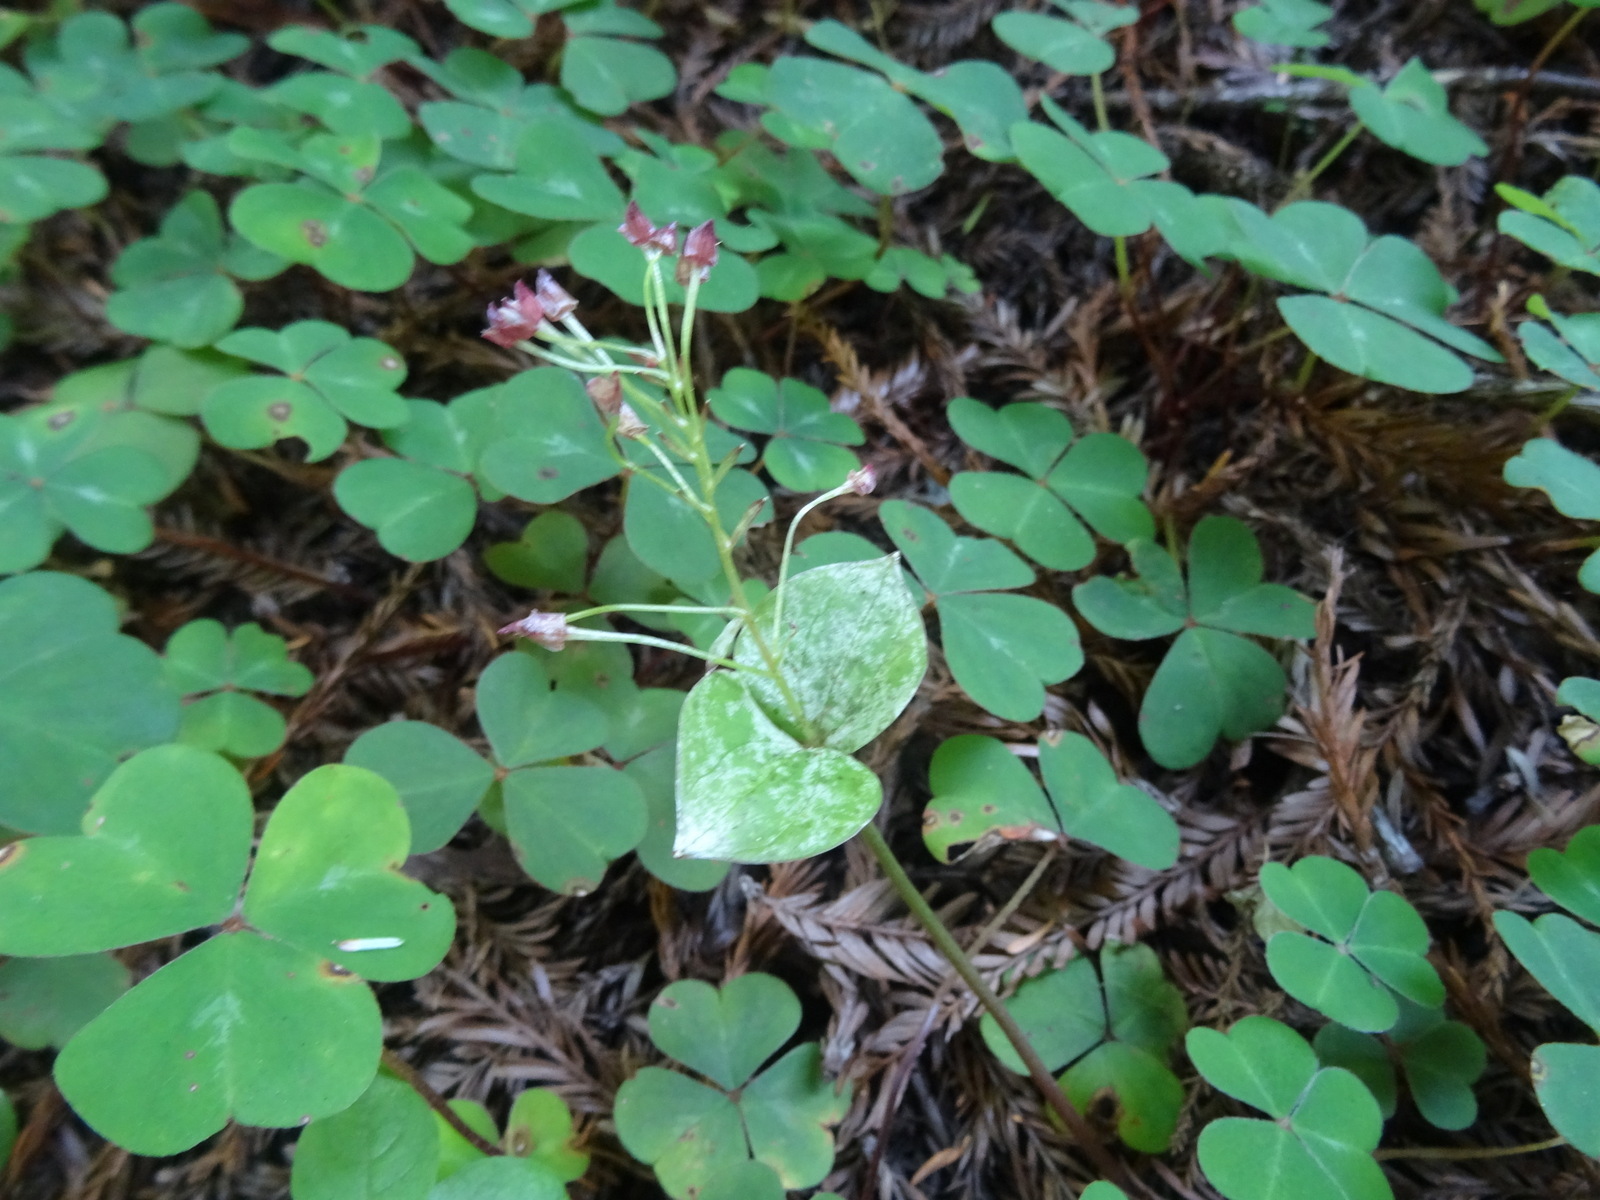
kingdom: Plantae
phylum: Tracheophyta
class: Magnoliopsida
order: Caryophyllales
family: Montiaceae
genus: Claytonia
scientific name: Claytonia sibirica
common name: Pink purslane
